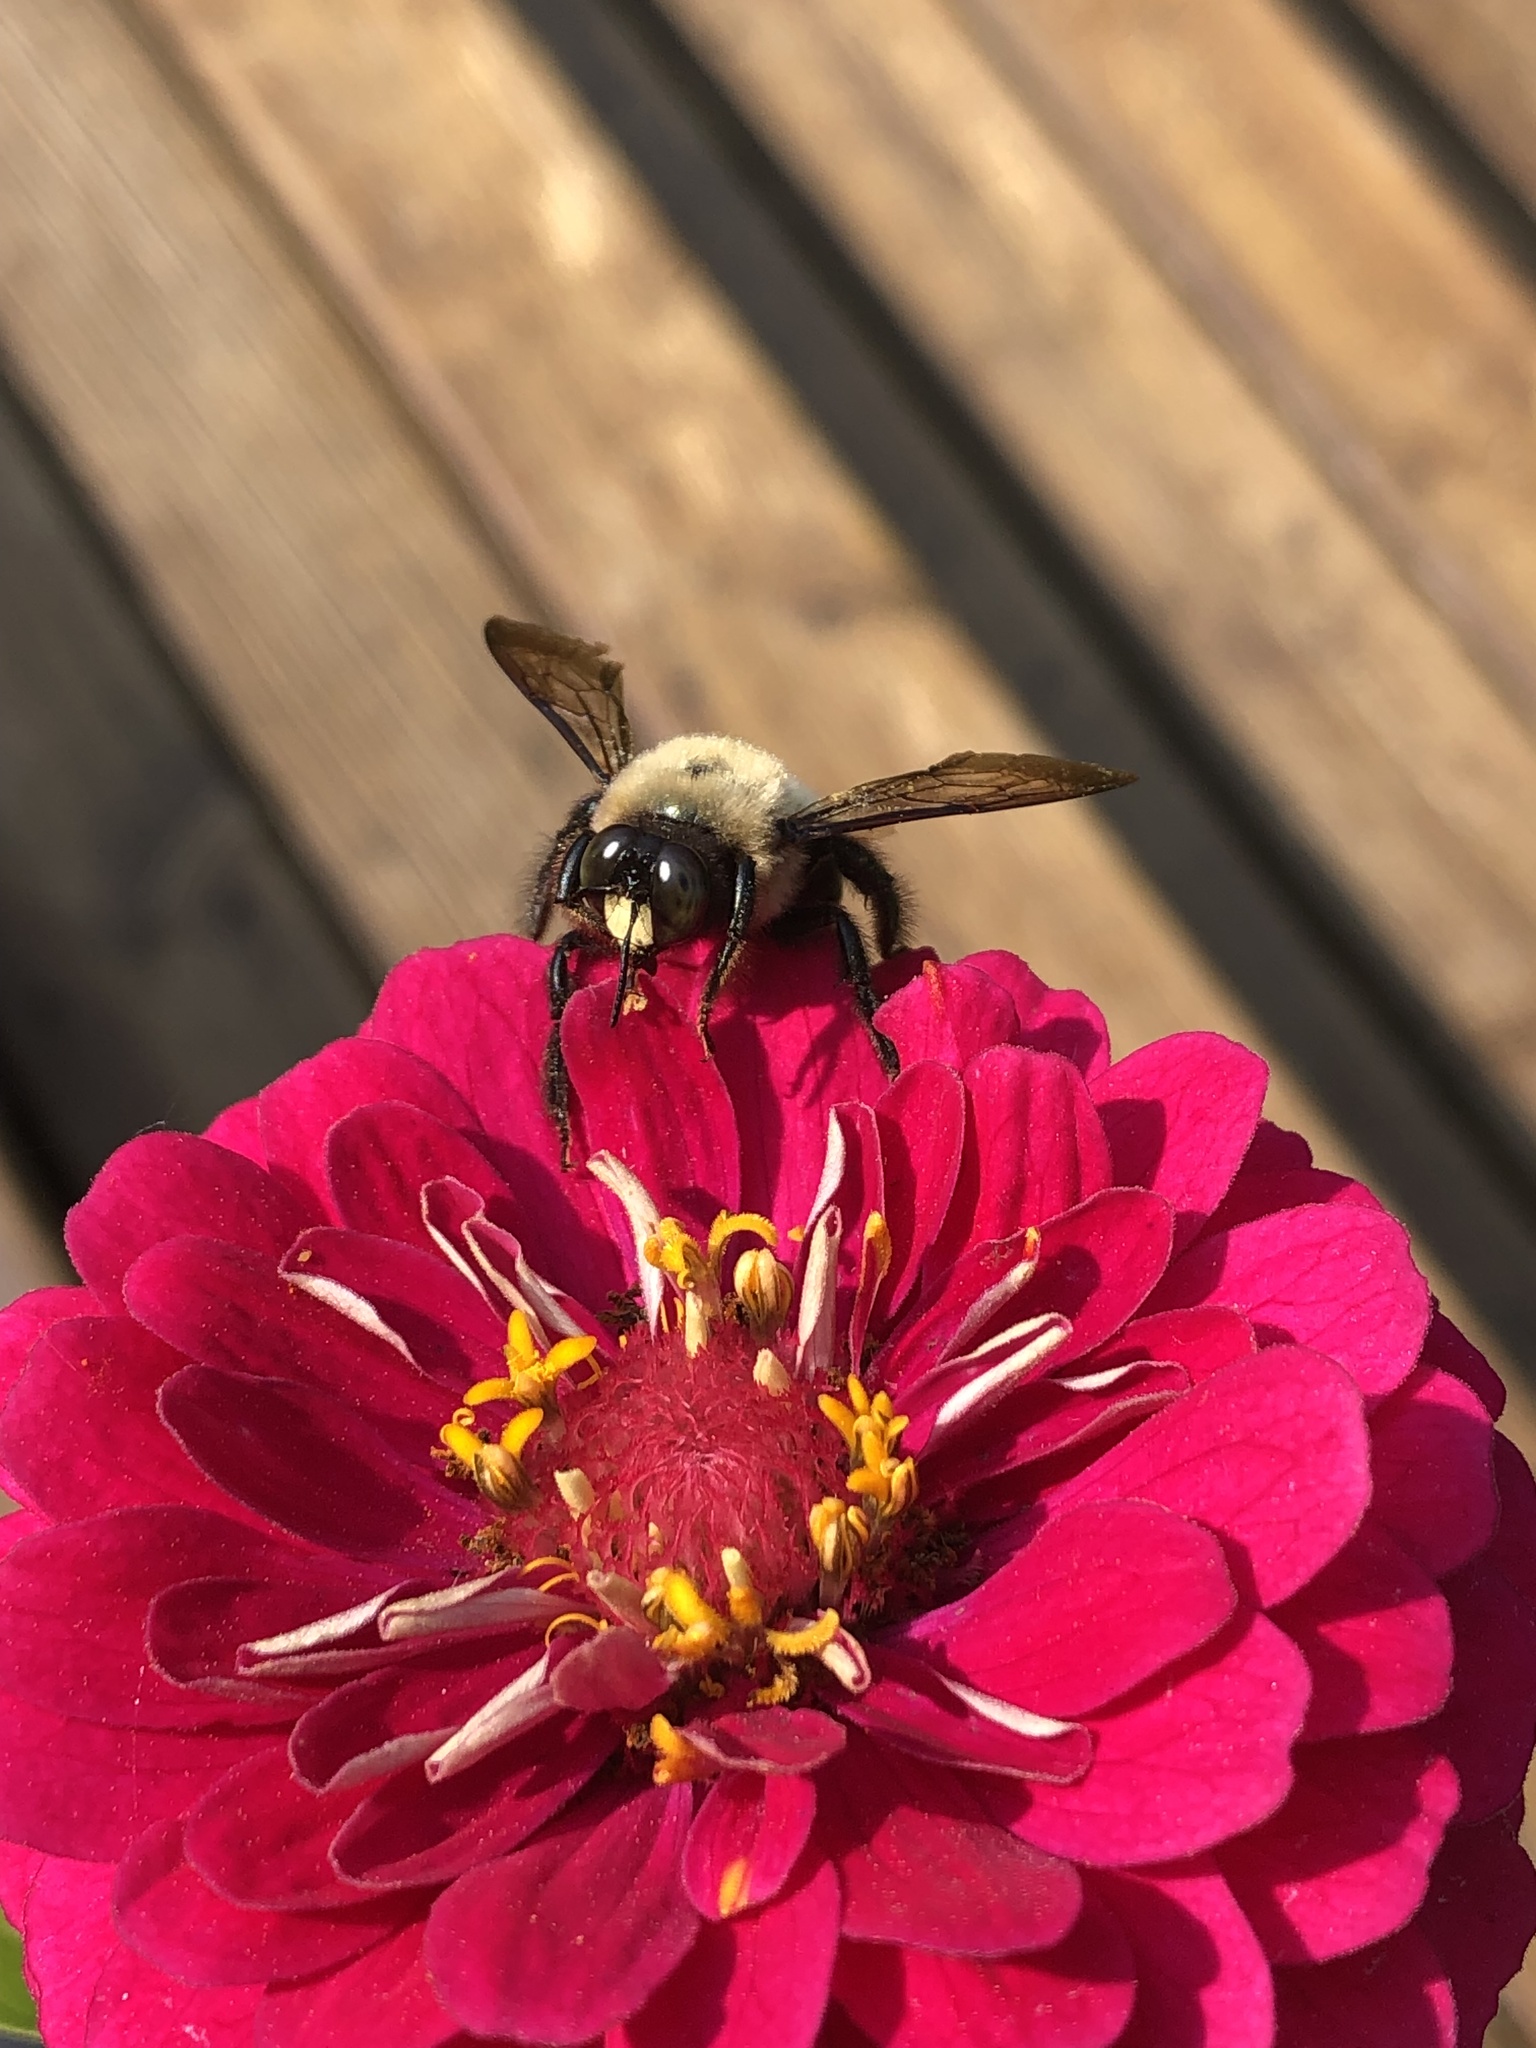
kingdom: Animalia
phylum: Arthropoda
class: Insecta
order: Hymenoptera
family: Apidae
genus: Xylocopa
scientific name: Xylocopa virginica
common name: Carpenter bee
